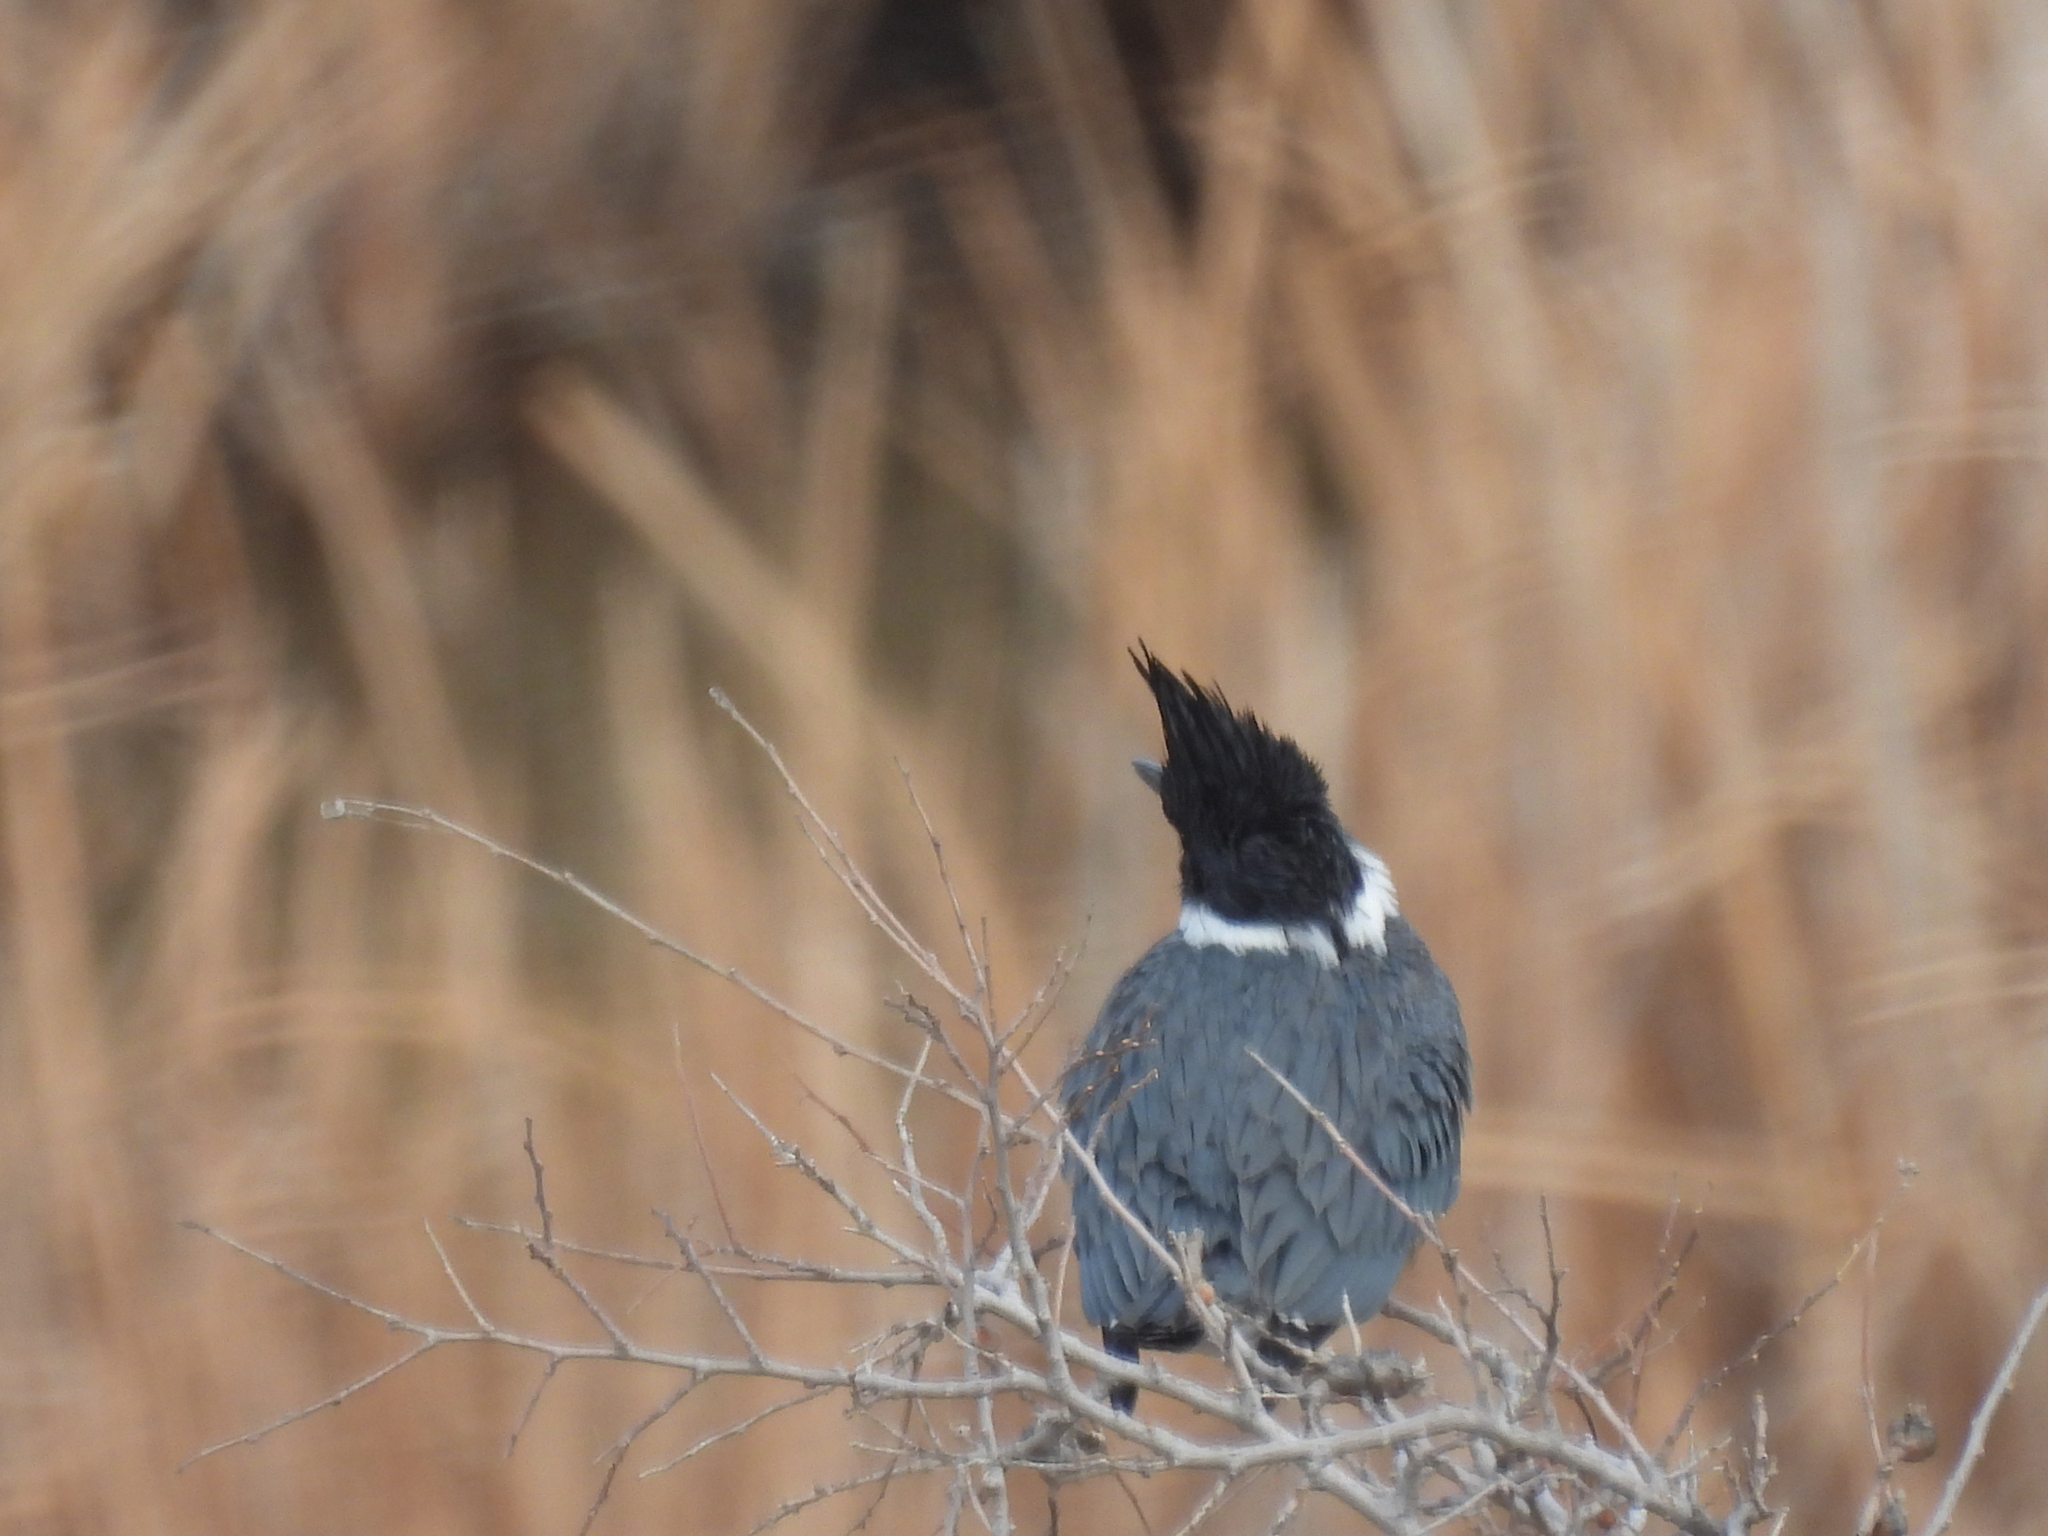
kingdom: Animalia
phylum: Chordata
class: Aves
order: Coraciiformes
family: Alcedinidae
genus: Megaceryle
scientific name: Megaceryle alcyon
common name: Belted kingfisher
